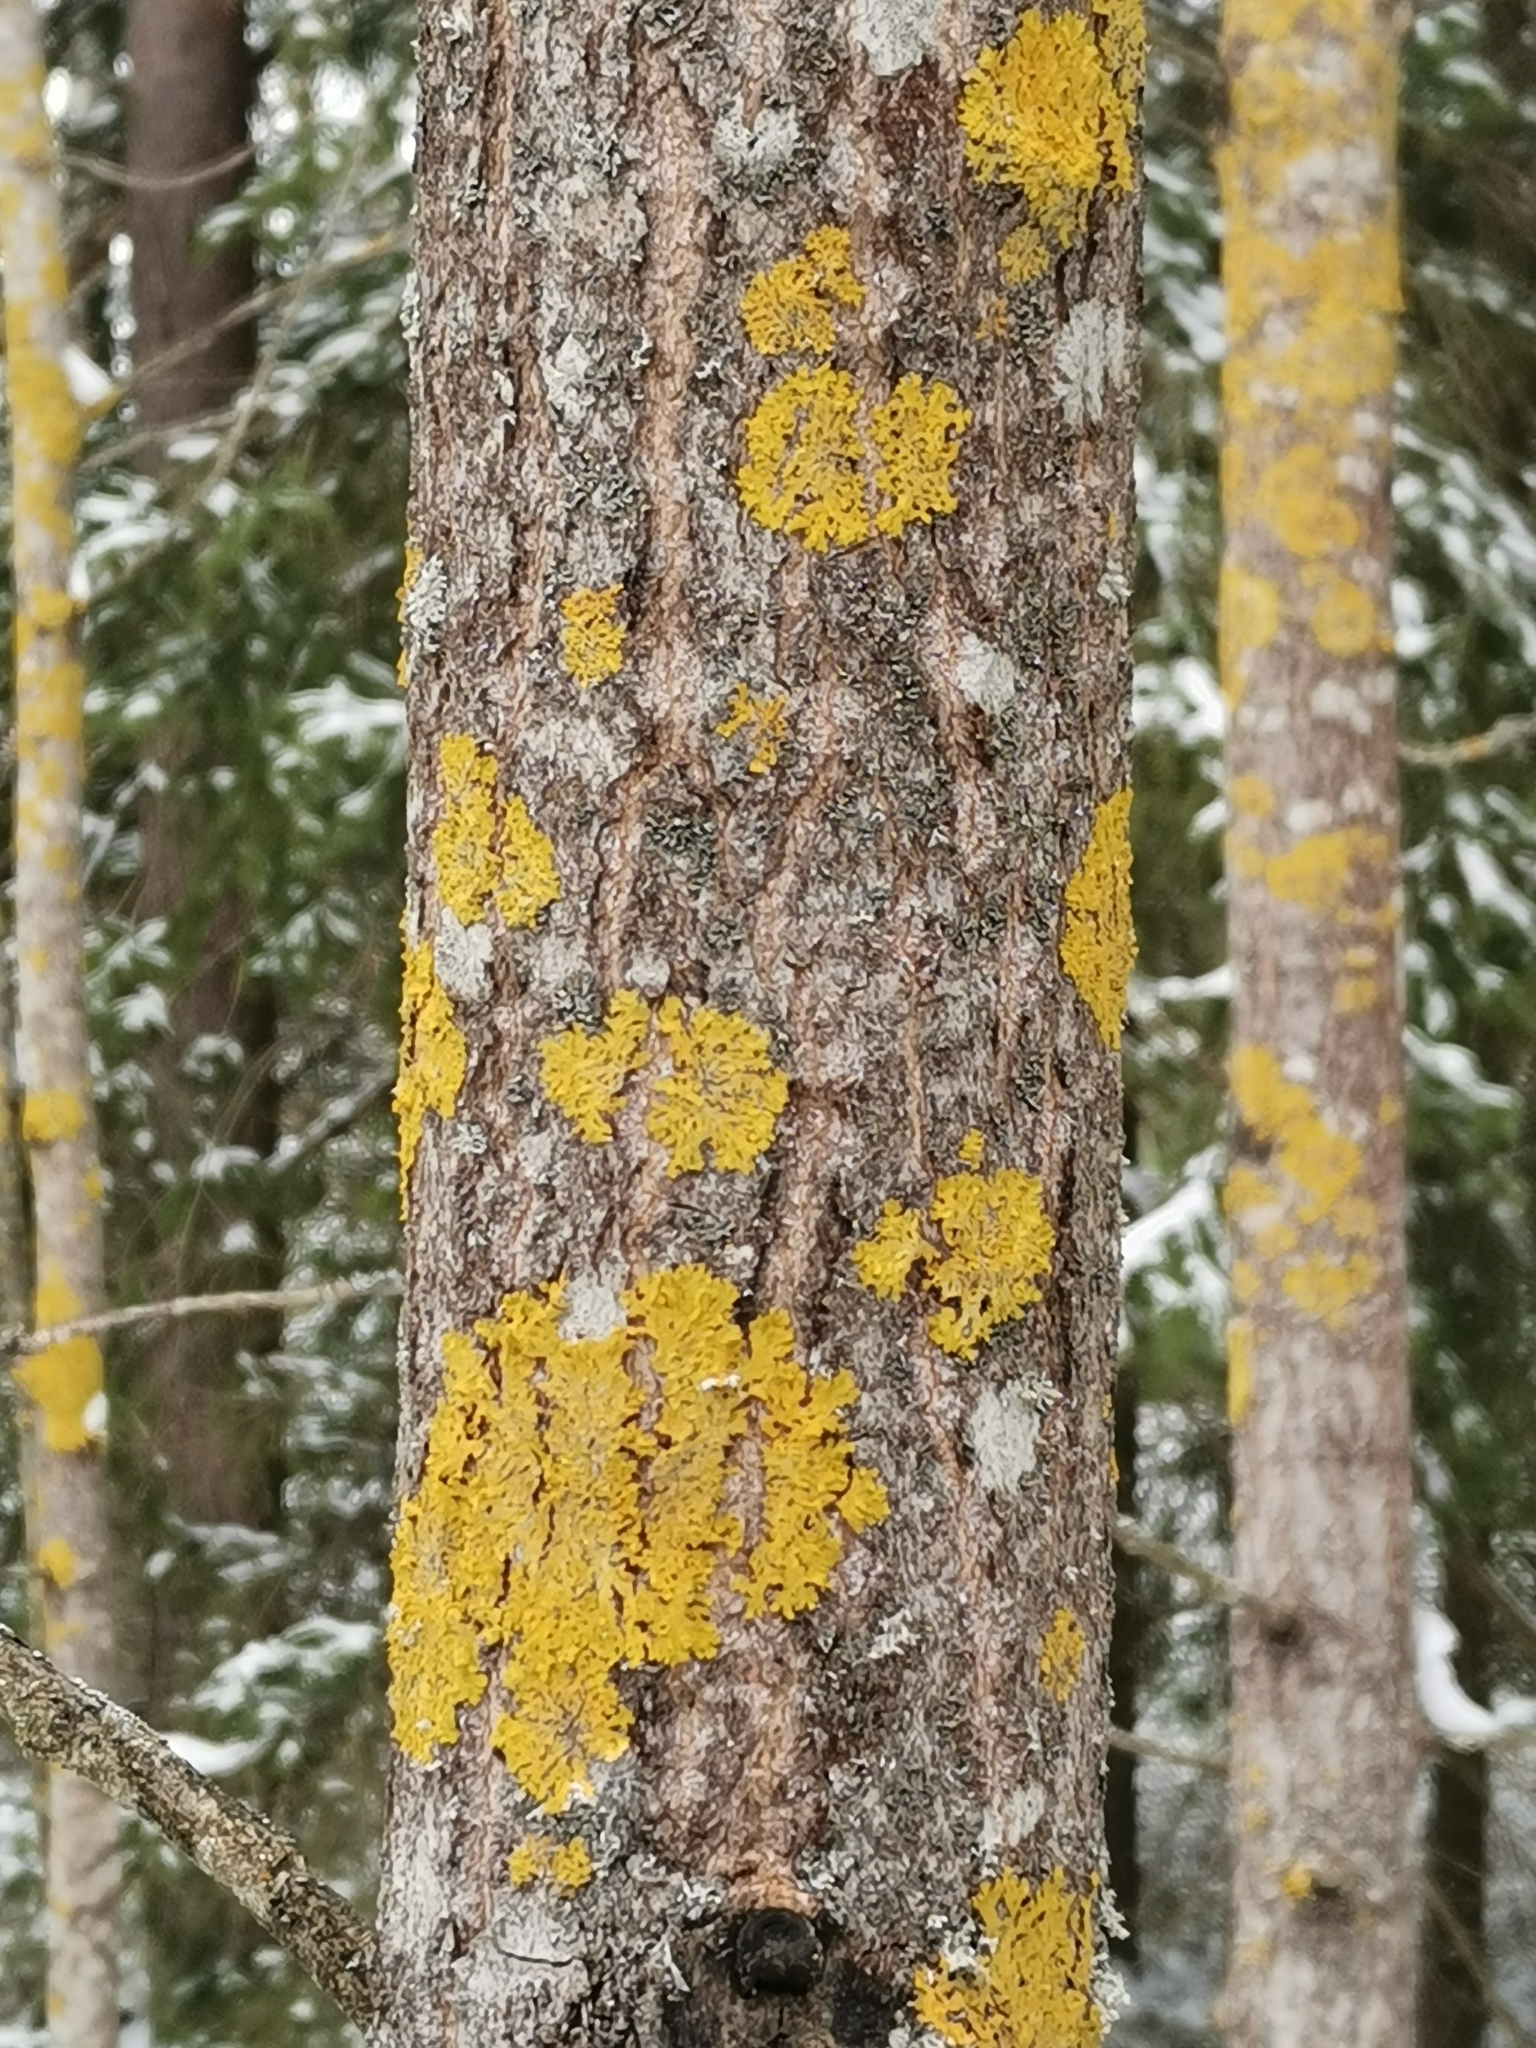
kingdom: Fungi
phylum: Ascomycota
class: Lecanoromycetes
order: Teloschistales
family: Teloschistaceae
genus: Xanthoria
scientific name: Xanthoria parietina
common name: Common orange lichen
